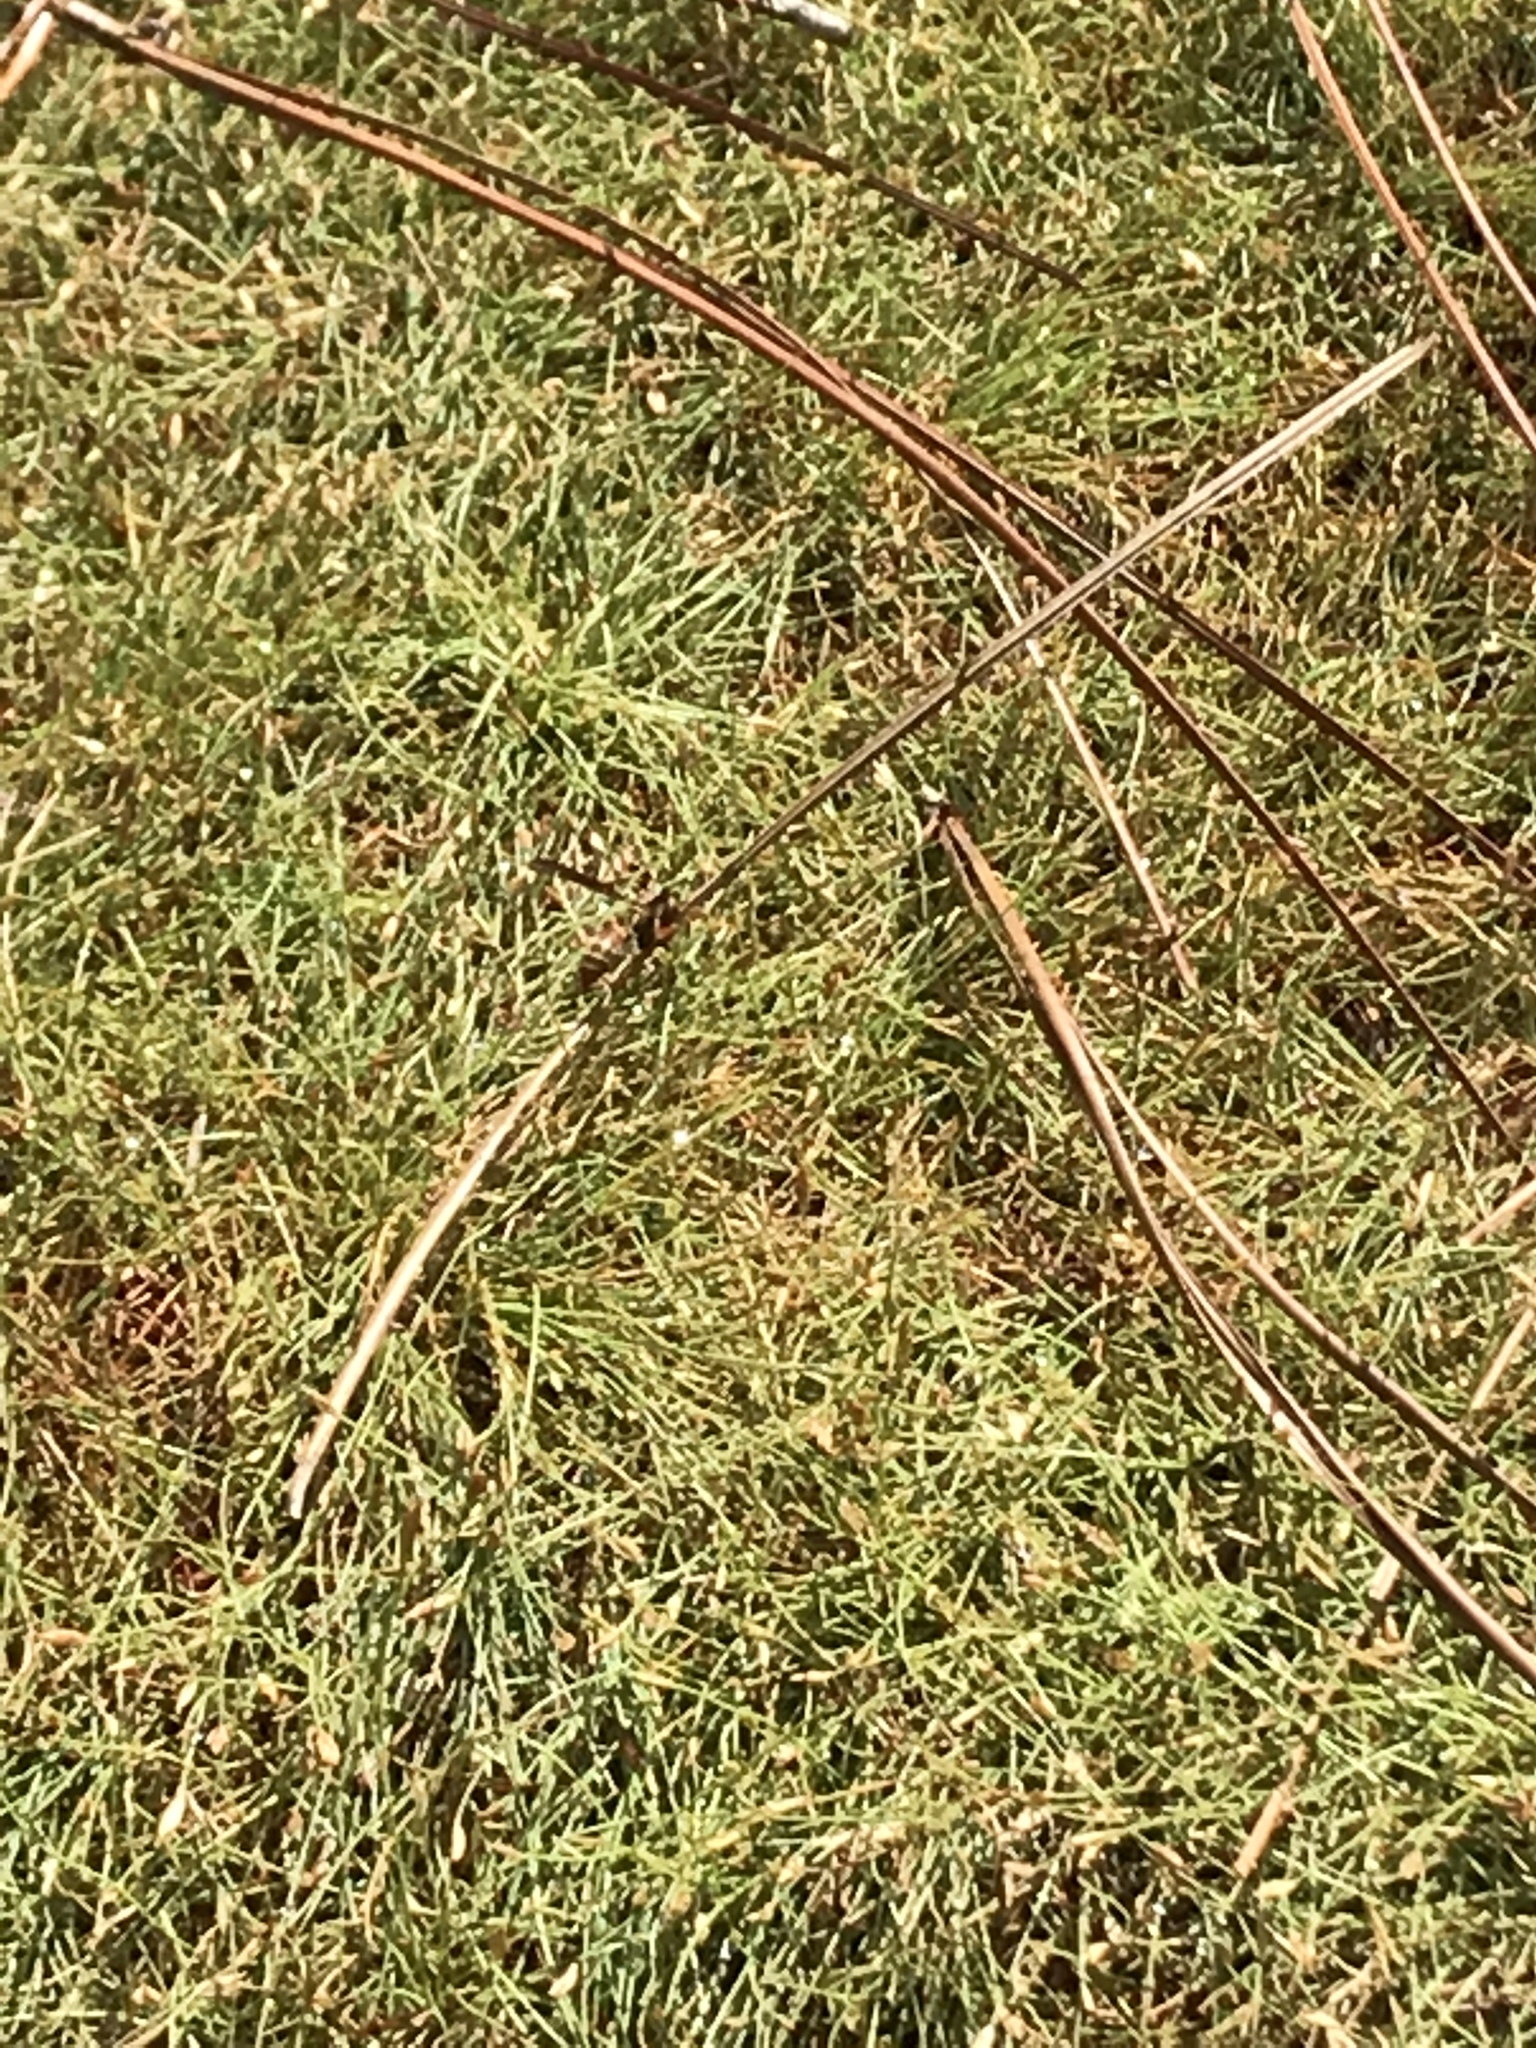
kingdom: Animalia
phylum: Arthropoda
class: Insecta
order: Hymenoptera
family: Vespidae
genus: Fuscopolistes
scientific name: Fuscopolistes
